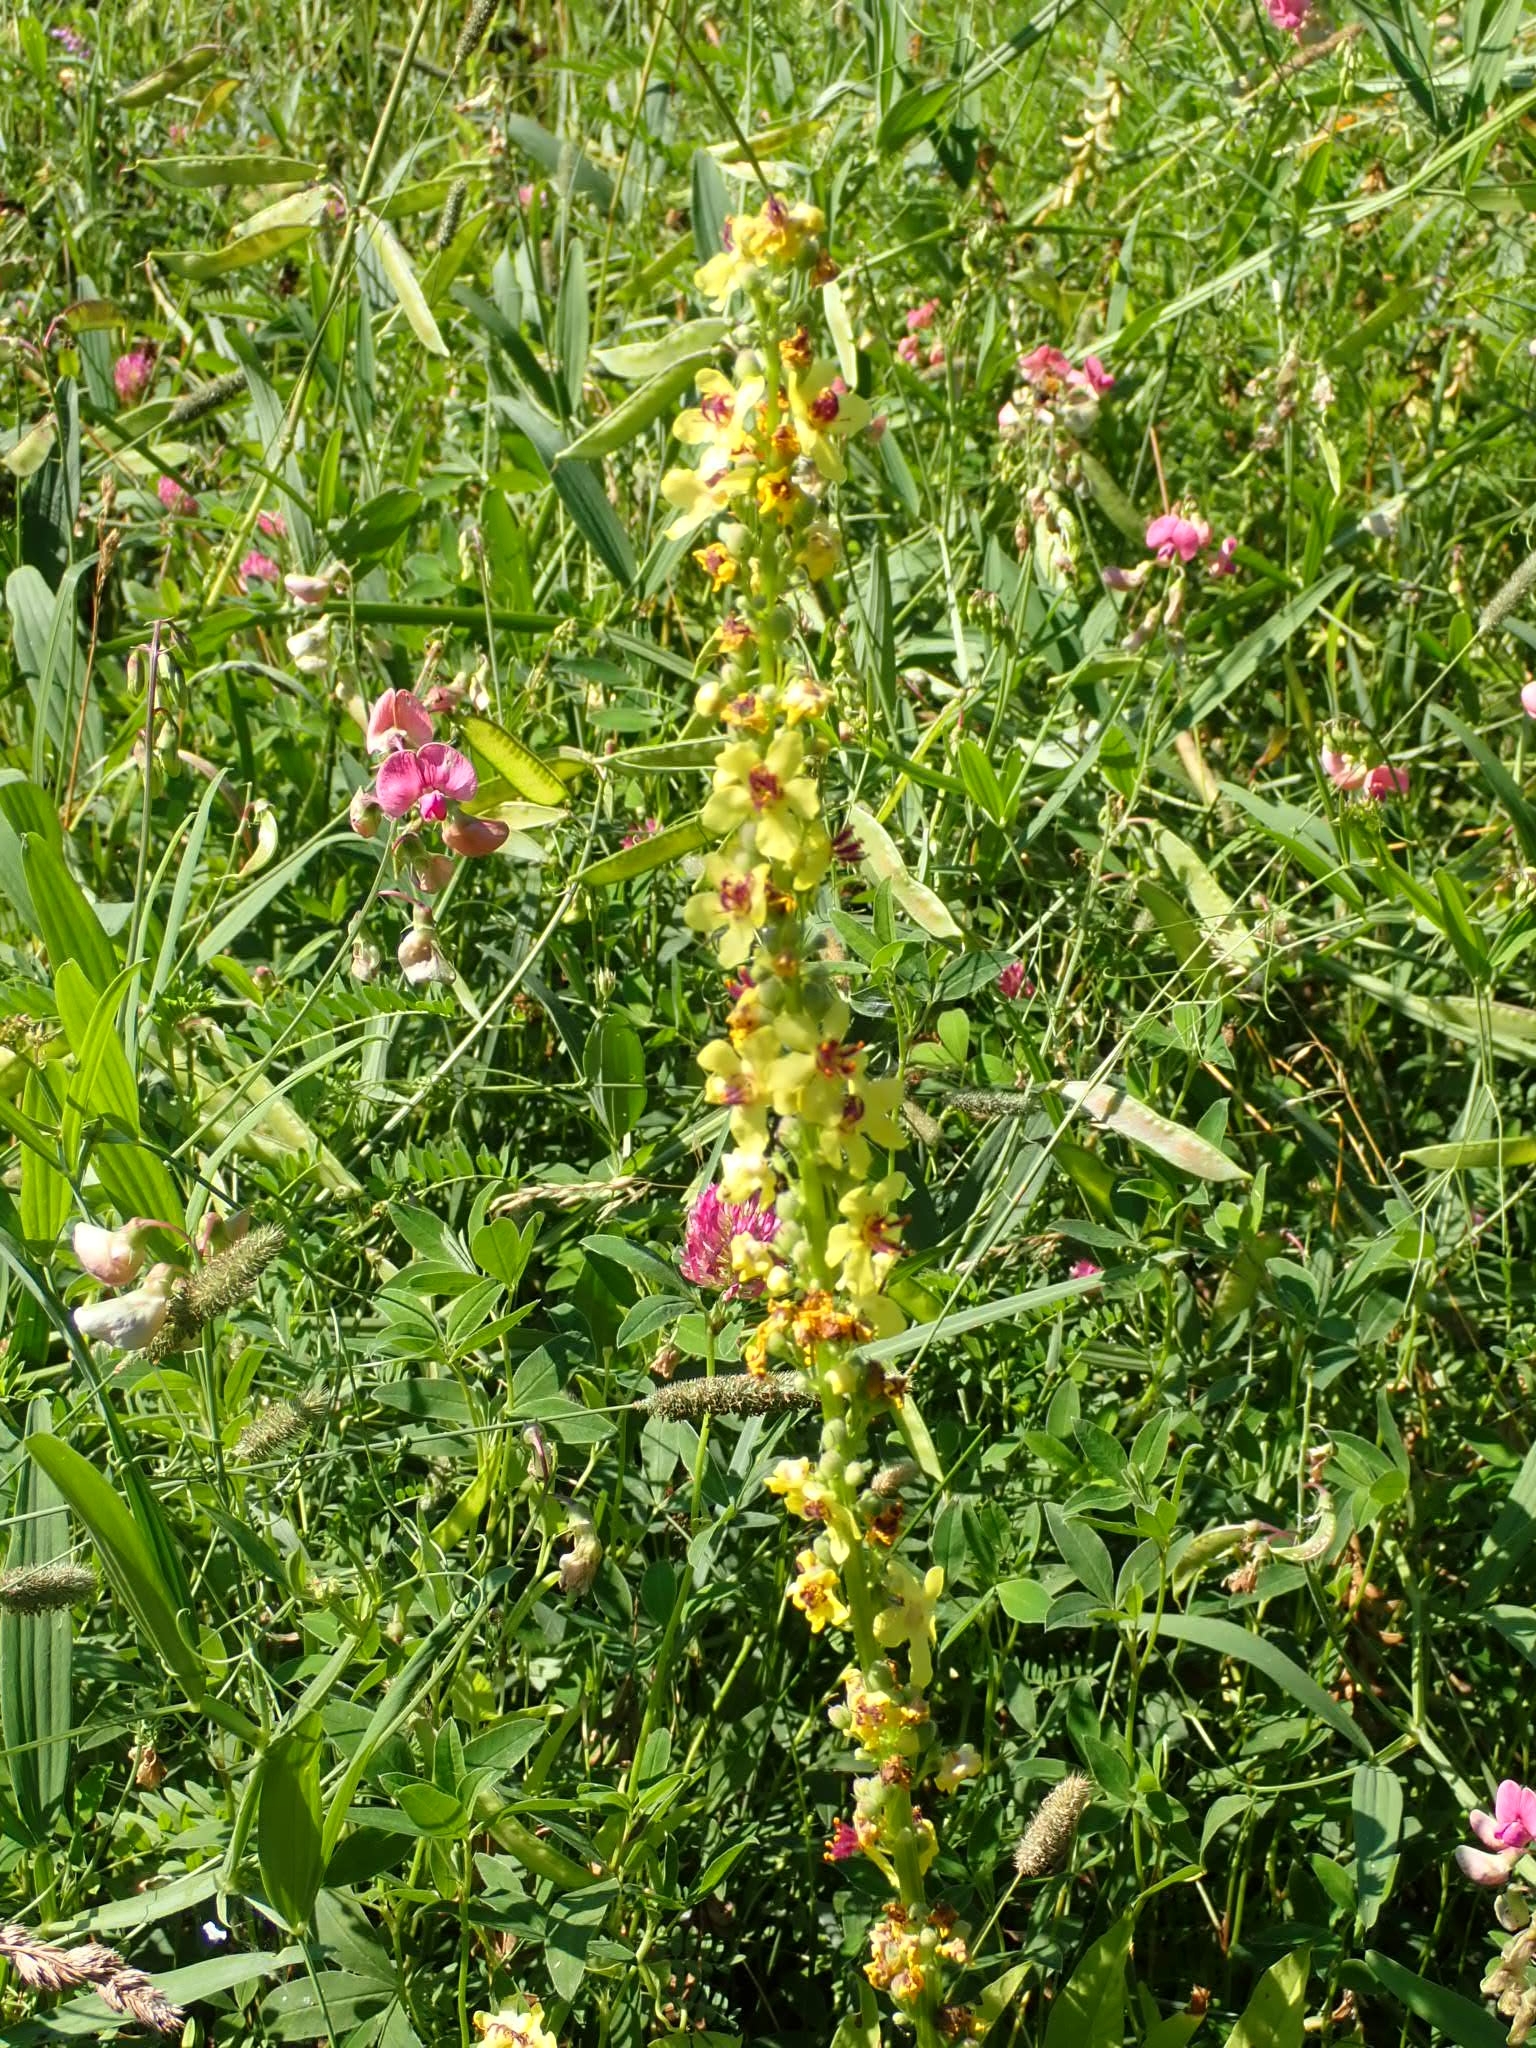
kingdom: Plantae
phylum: Tracheophyta
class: Magnoliopsida
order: Lamiales
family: Scrophulariaceae
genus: Verbascum
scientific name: Verbascum nigrum
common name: Dark mullein
